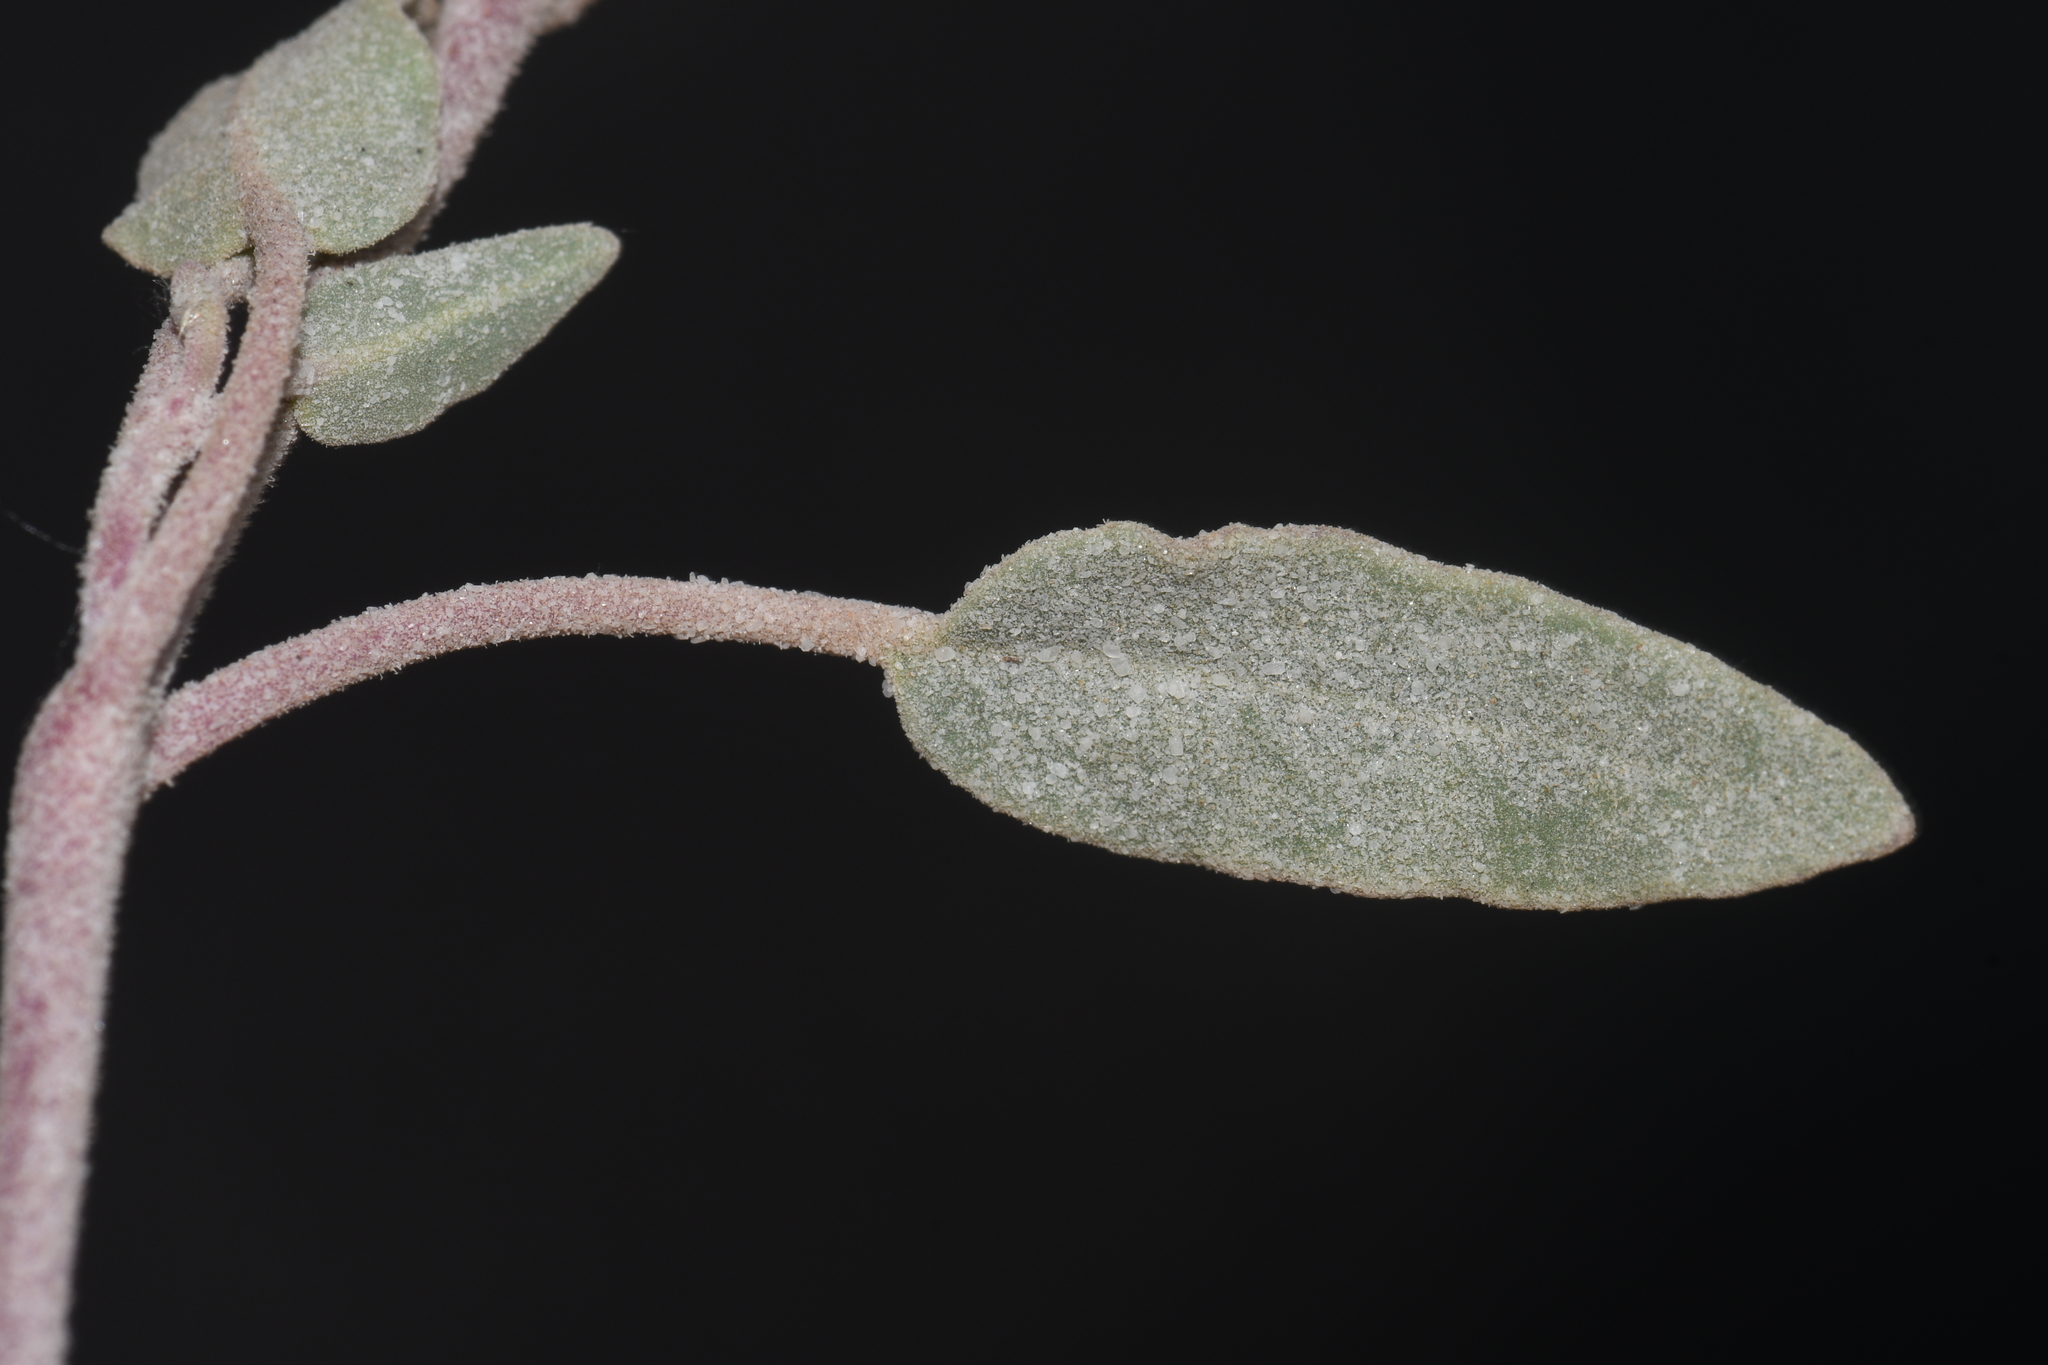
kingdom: Plantae
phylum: Tracheophyta
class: Magnoliopsida
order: Caryophyllales
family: Nyctaginaceae
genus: Abronia
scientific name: Abronia angustifolia
